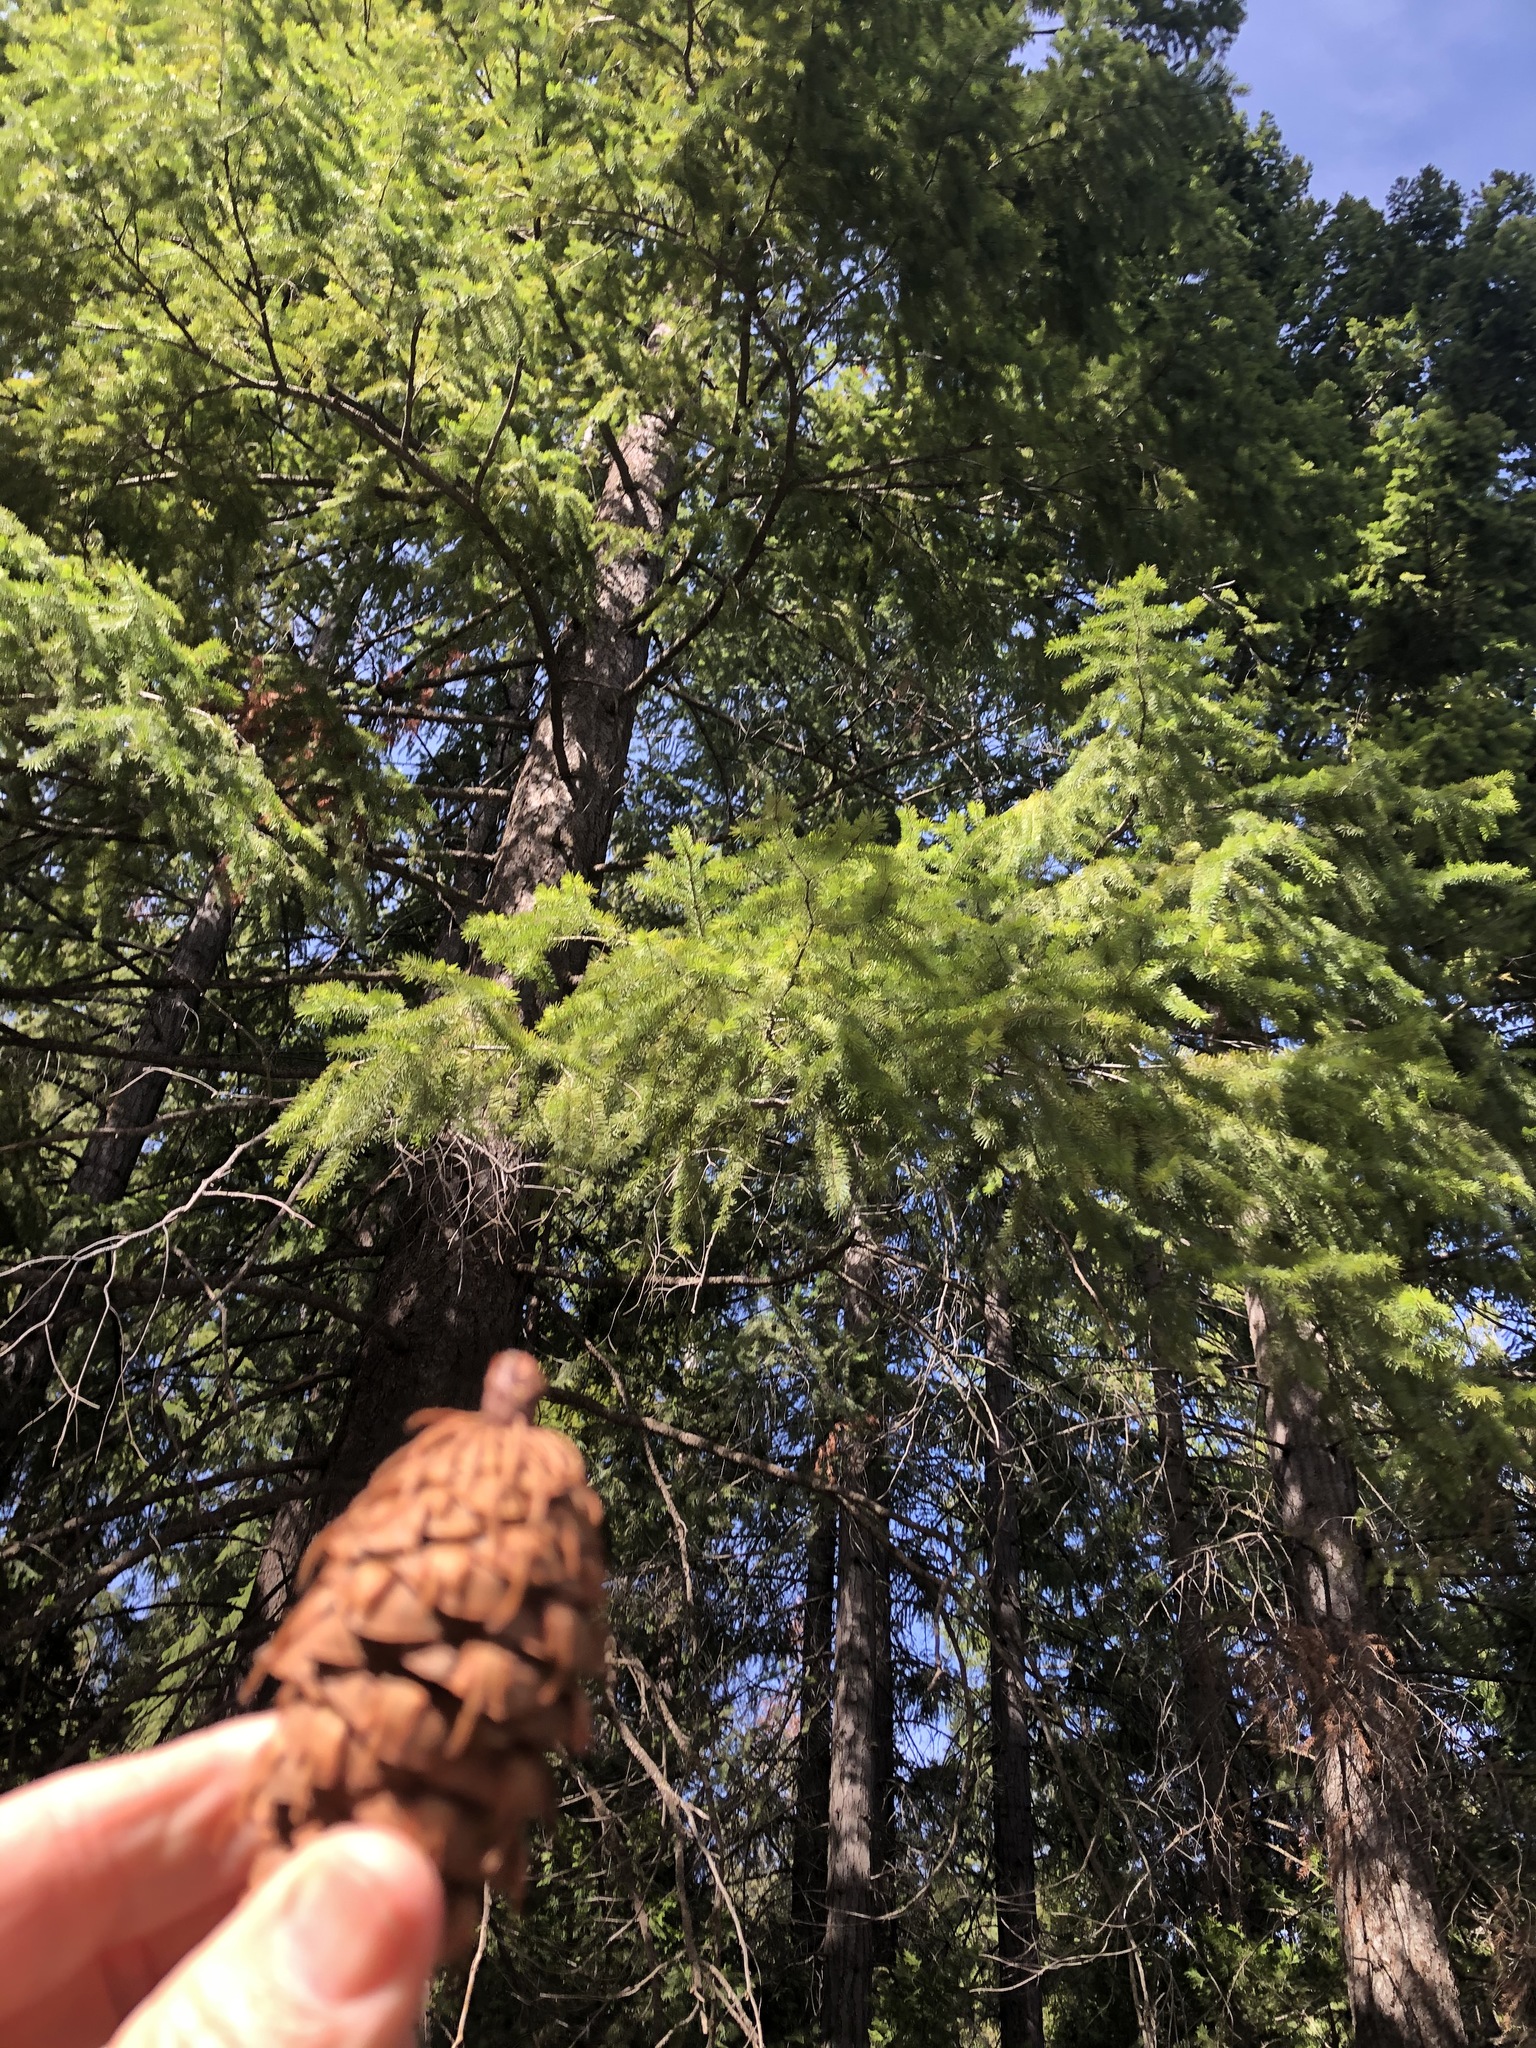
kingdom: Plantae
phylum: Tracheophyta
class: Pinopsida
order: Pinales
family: Pinaceae
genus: Pseudotsuga
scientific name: Pseudotsuga menziesii
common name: Douglas fir
